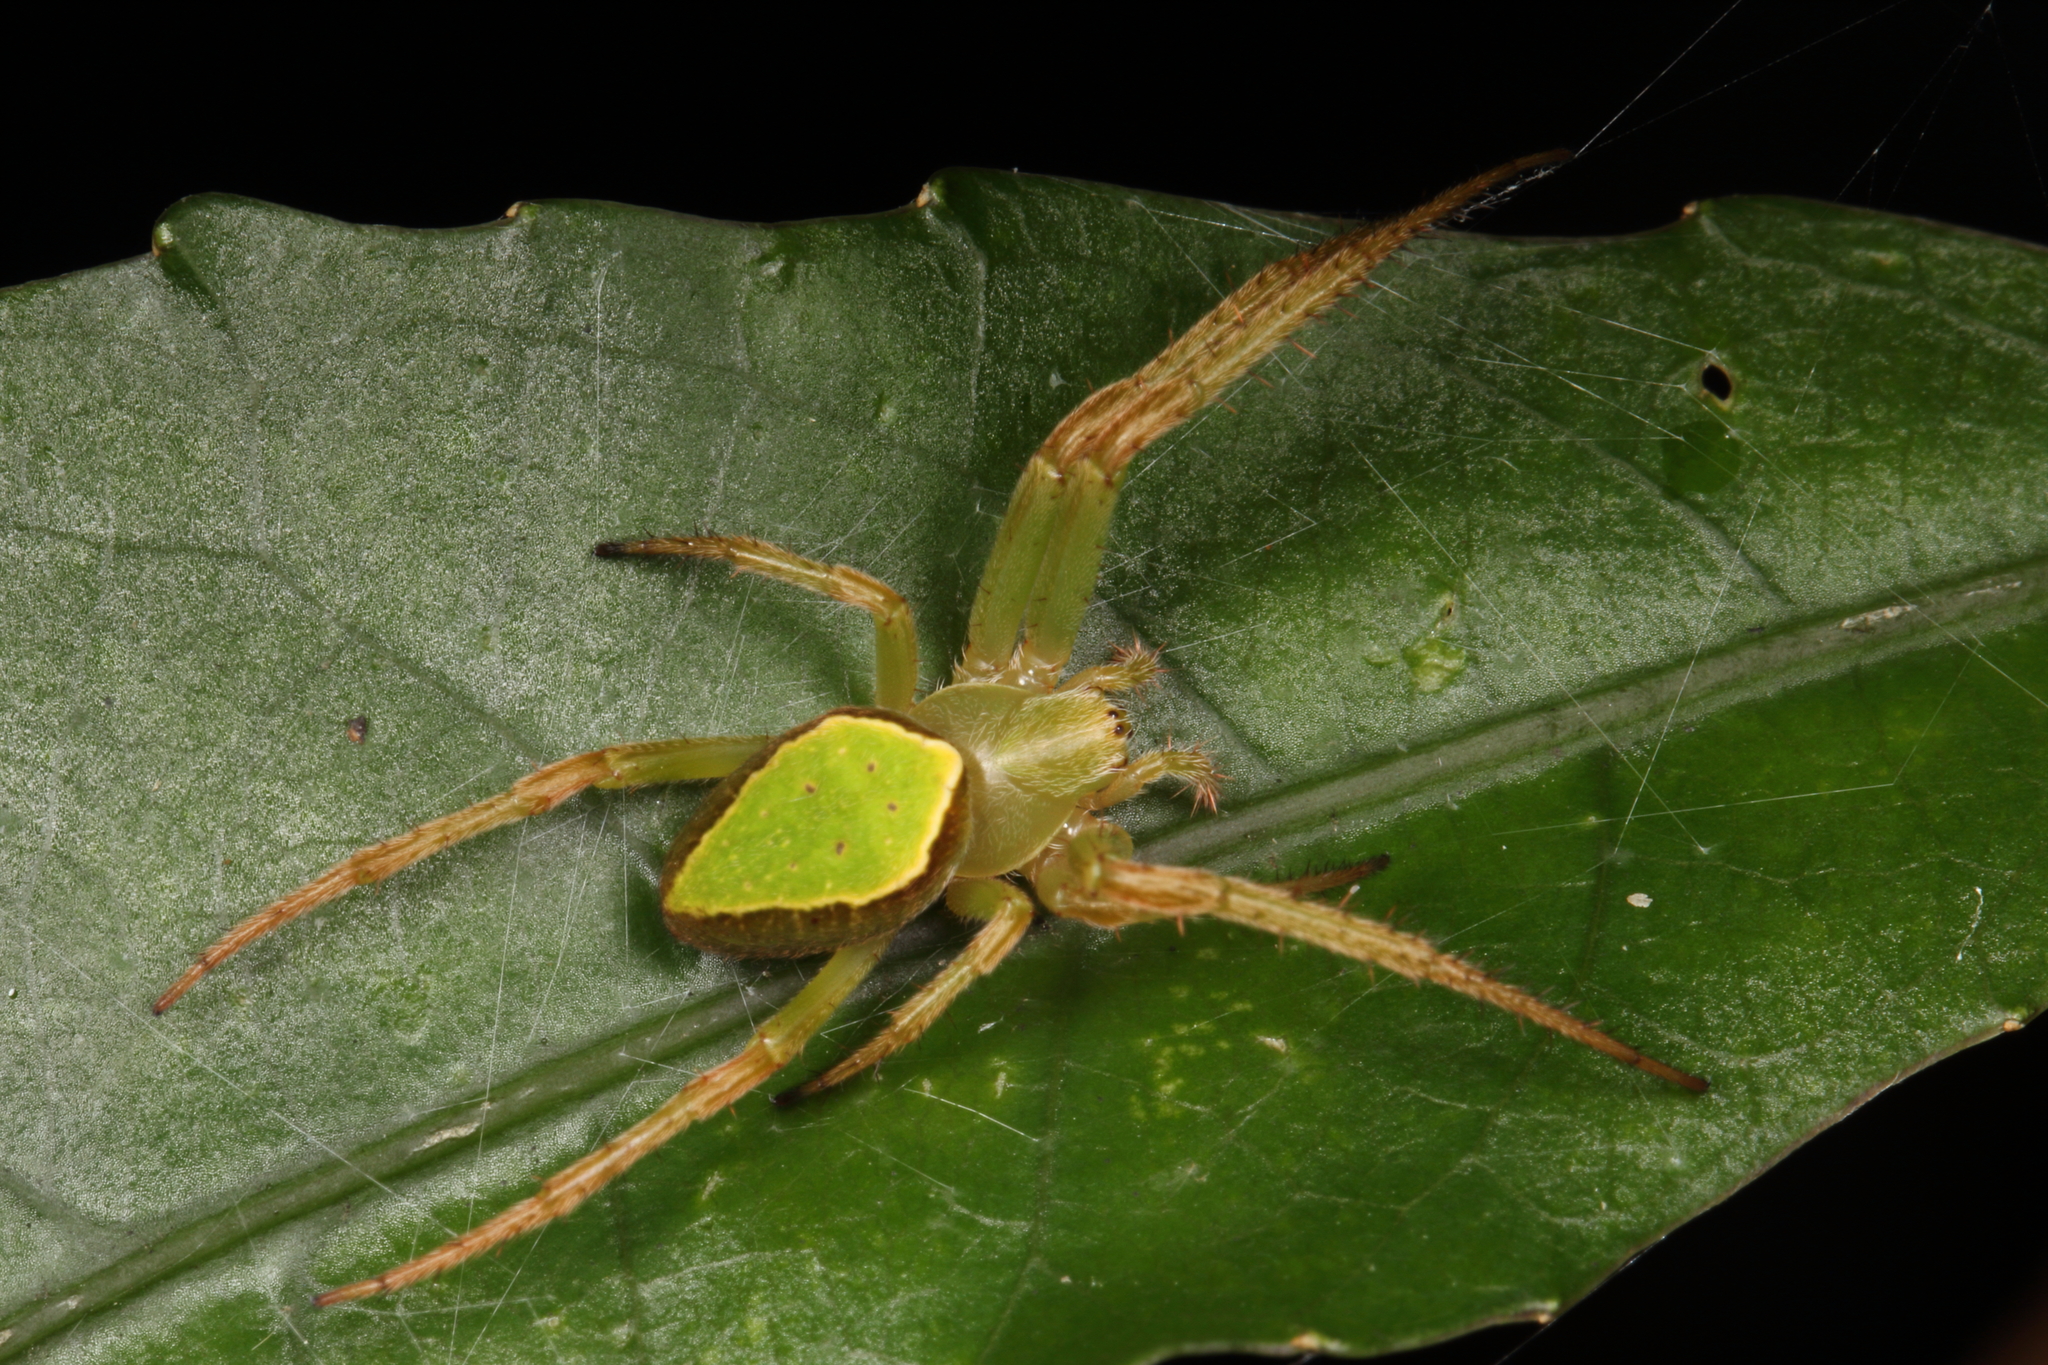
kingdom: Animalia
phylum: Arthropoda
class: Arachnida
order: Araneae
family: Araneidae
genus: Colaranea
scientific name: Colaranea viriditas
